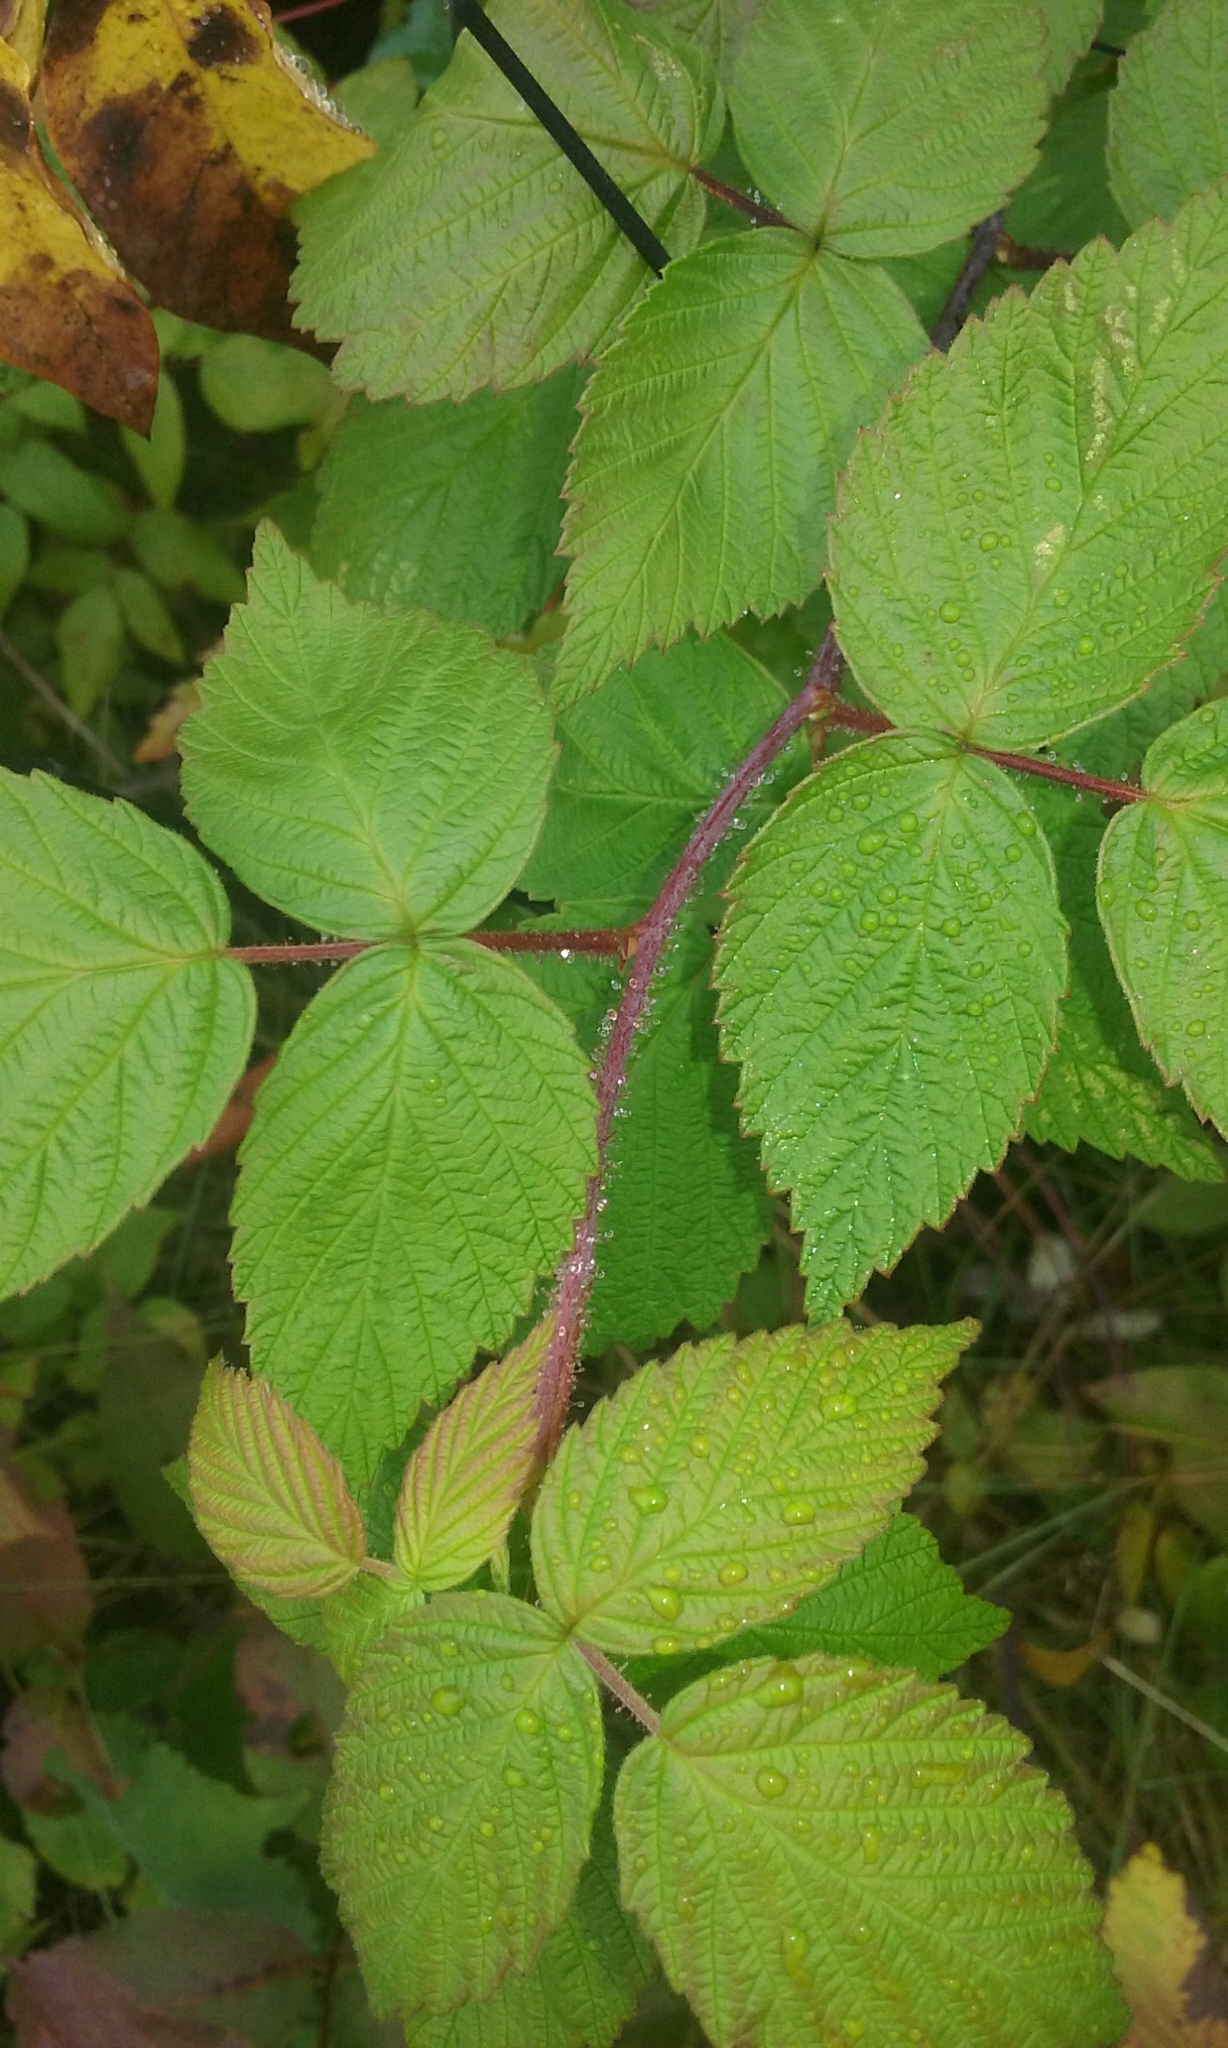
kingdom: Plantae
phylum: Tracheophyta
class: Magnoliopsida
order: Rosales
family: Rosaceae
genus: Rubus
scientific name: Rubus idaeus
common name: Raspberry
